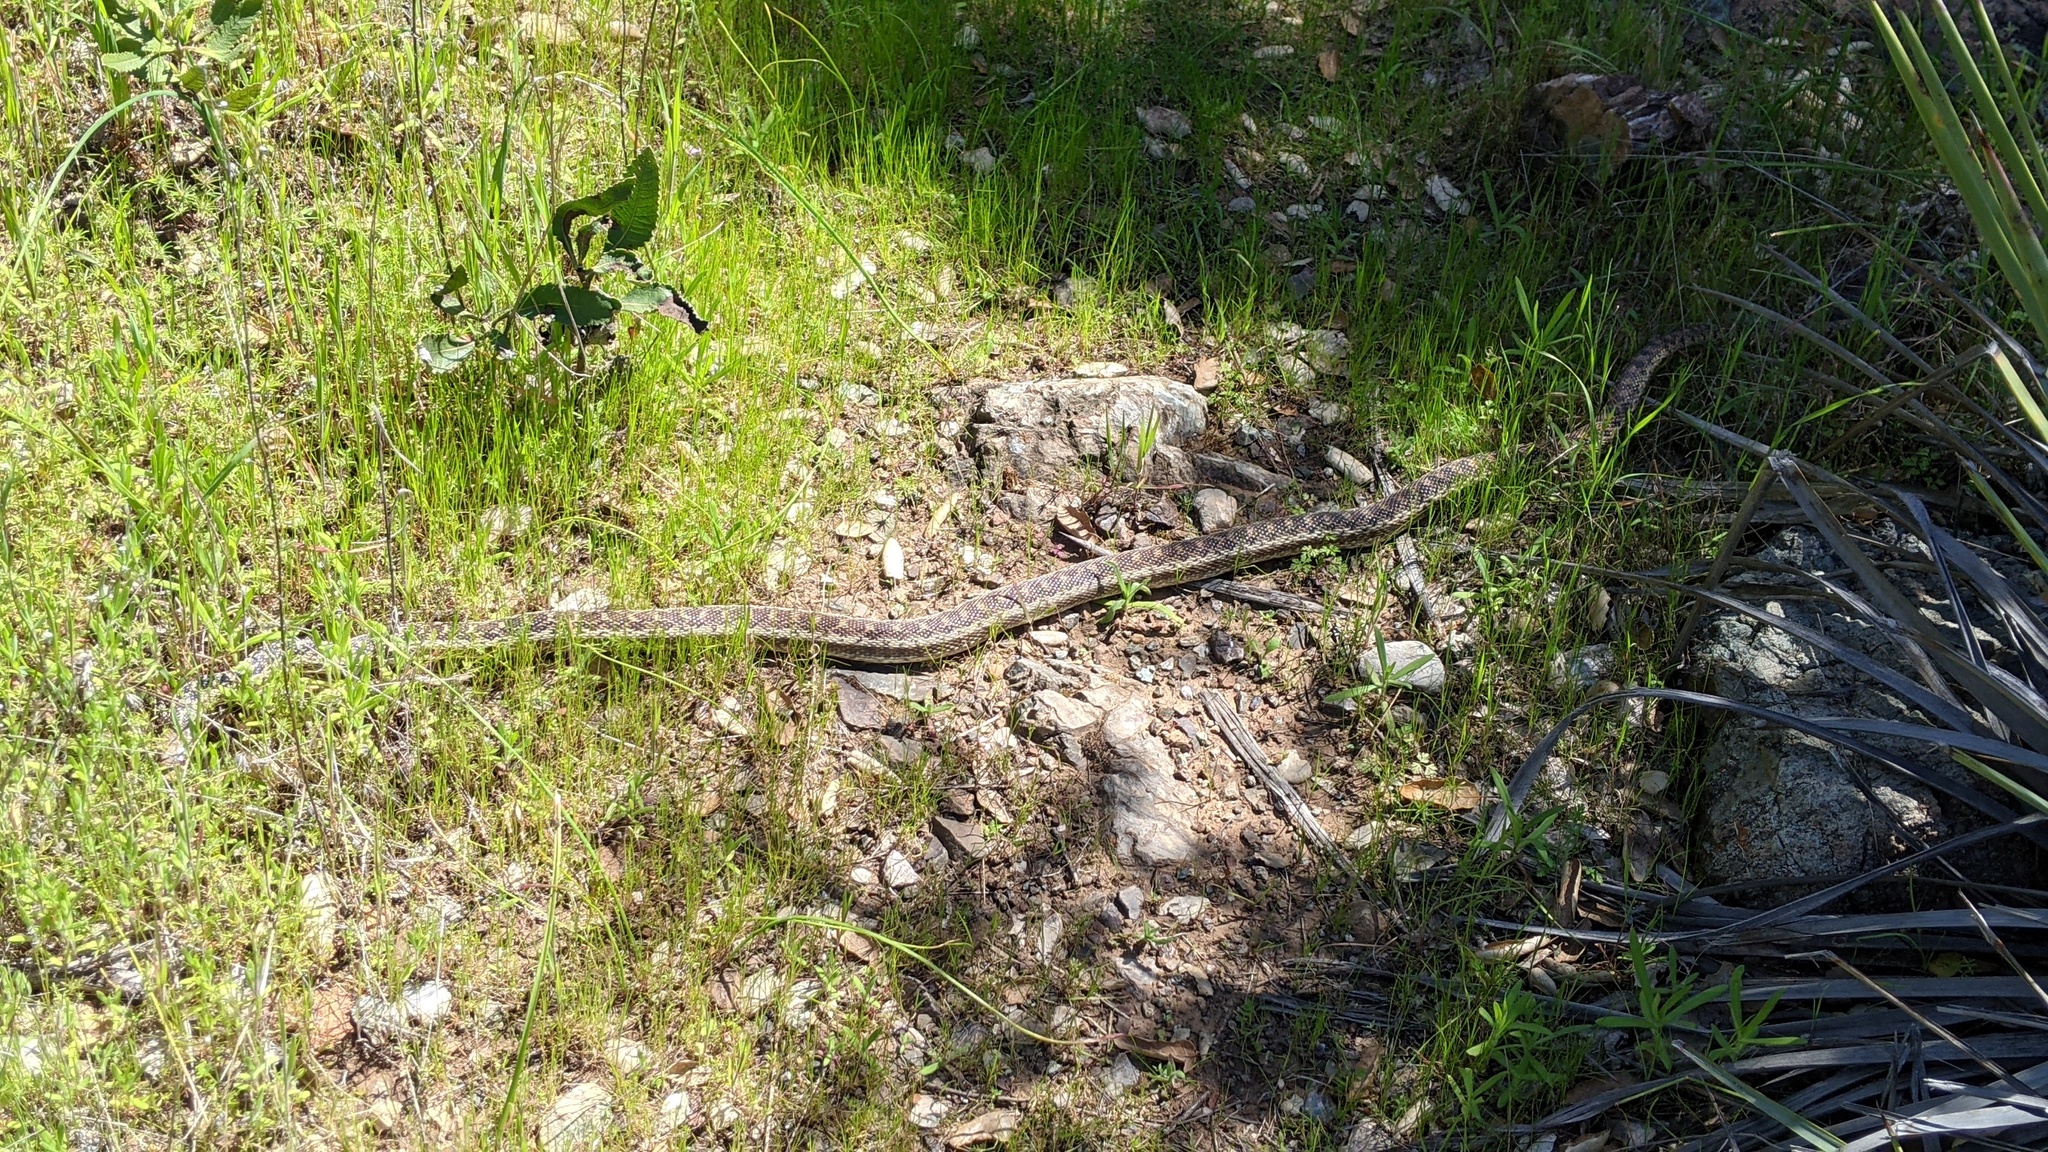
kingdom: Animalia
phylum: Chordata
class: Squamata
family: Colubridae
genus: Pituophis
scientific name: Pituophis catenifer
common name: Gopher snake
